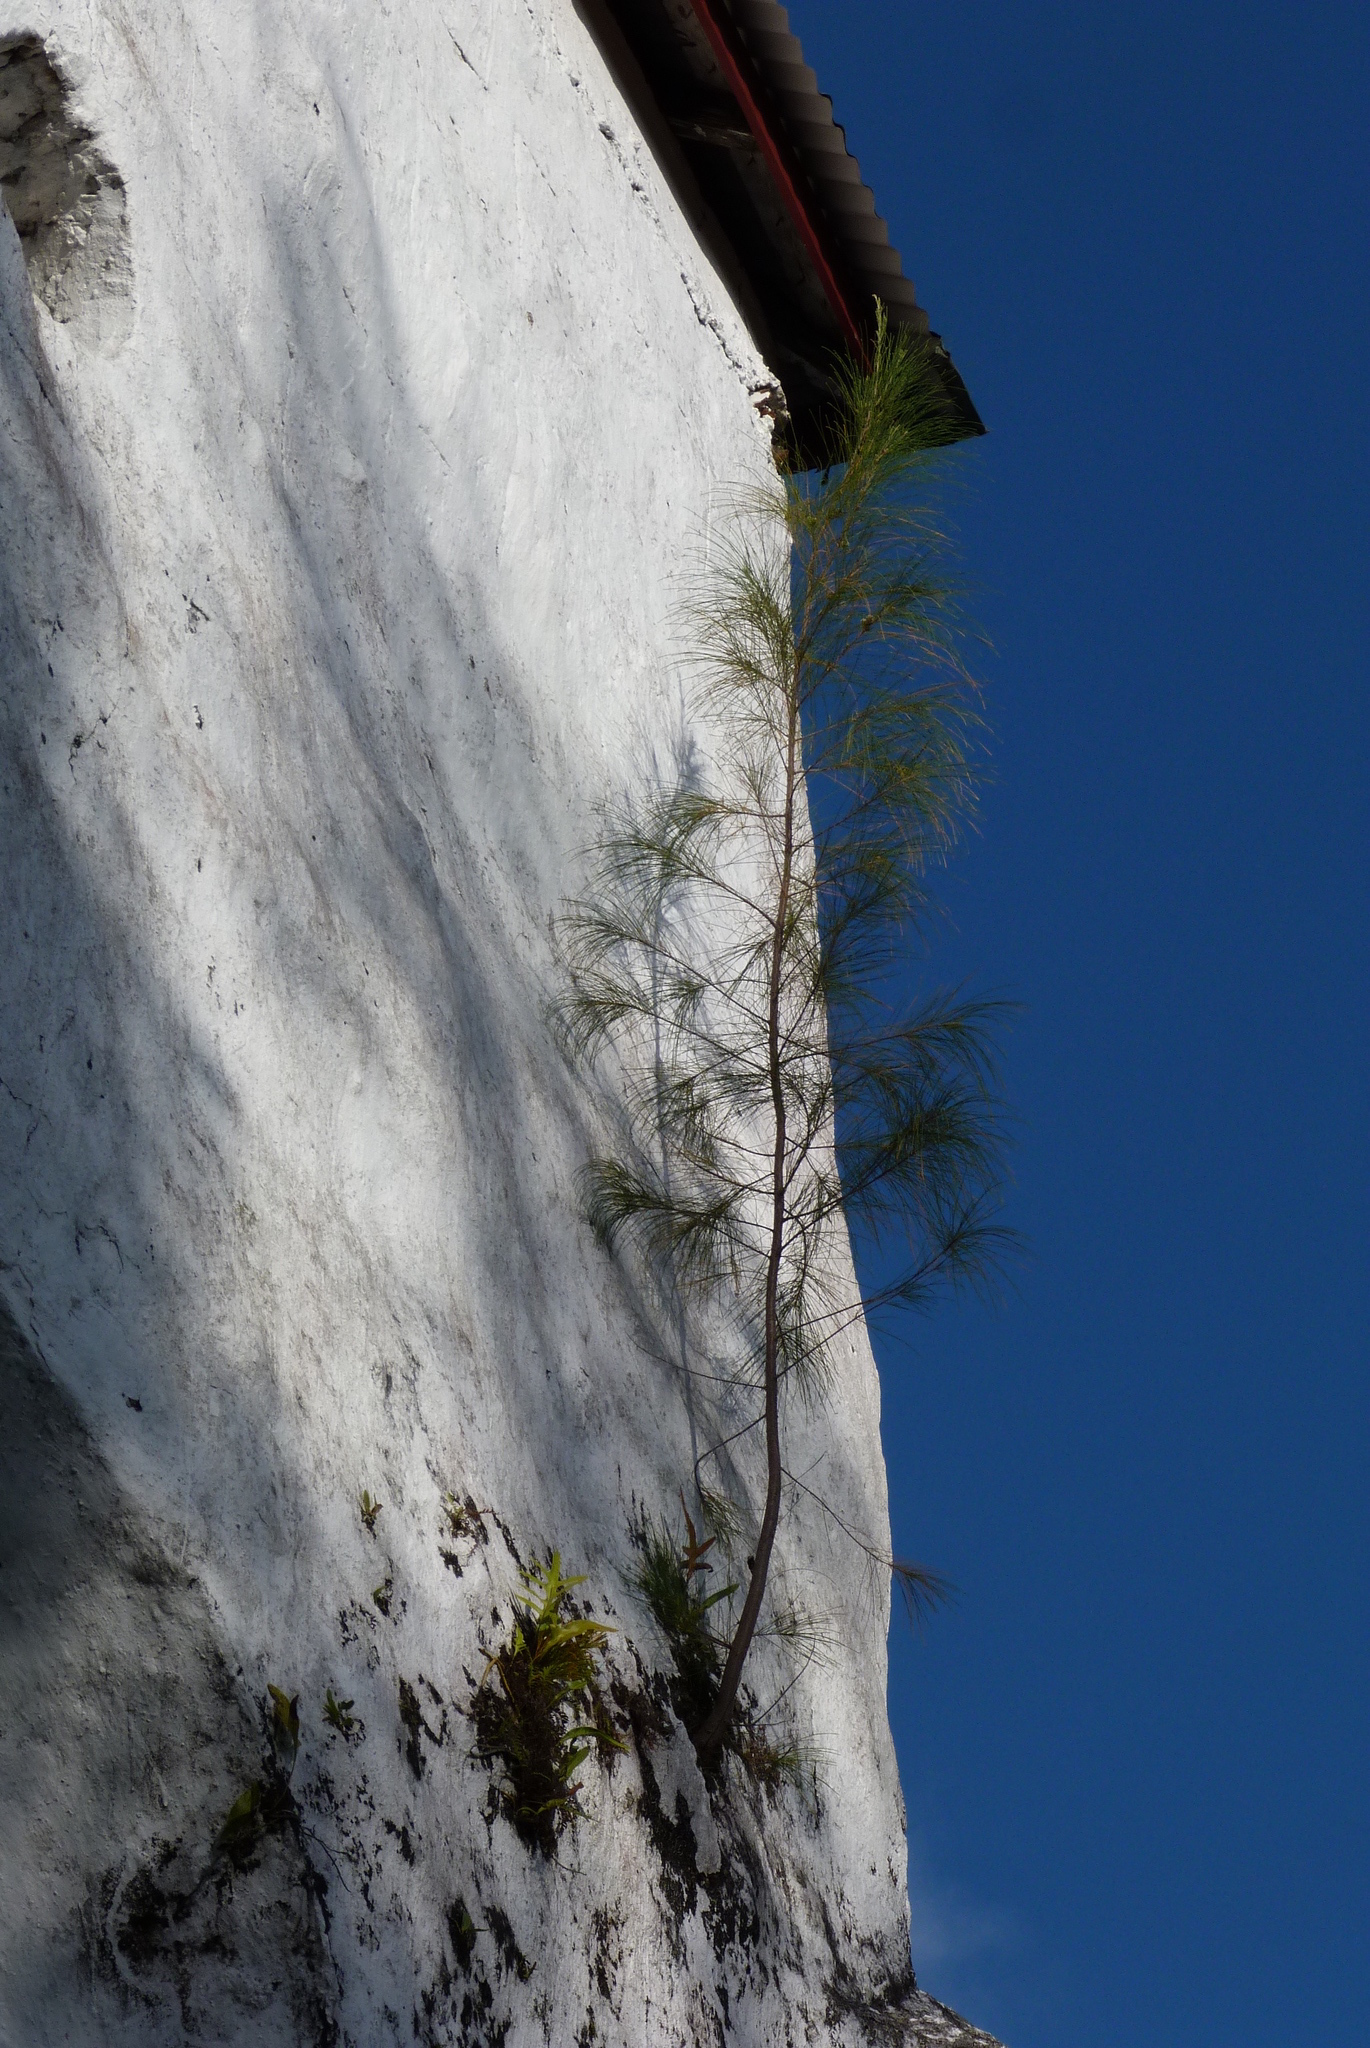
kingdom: Plantae
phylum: Tracheophyta
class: Magnoliopsida
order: Fagales
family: Casuarinaceae
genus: Casuarina
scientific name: Casuarina equisetifolia
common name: Beach sheoak
